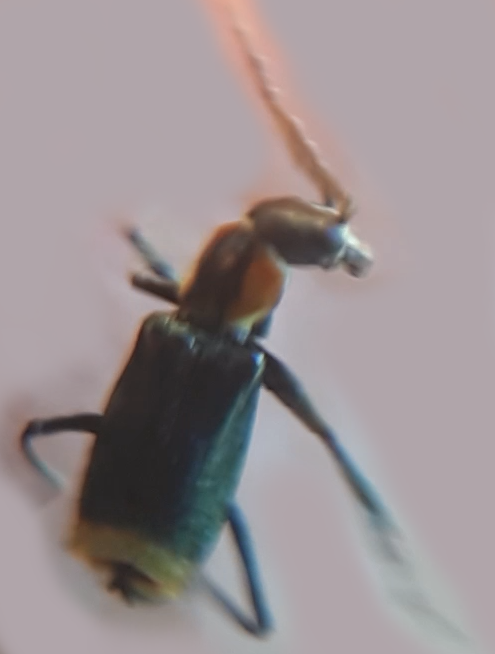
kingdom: Animalia
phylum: Arthropoda
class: Insecta
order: Coleoptera
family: Melyridae
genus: Axinotarsus
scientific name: Axinotarsus pulicarius
